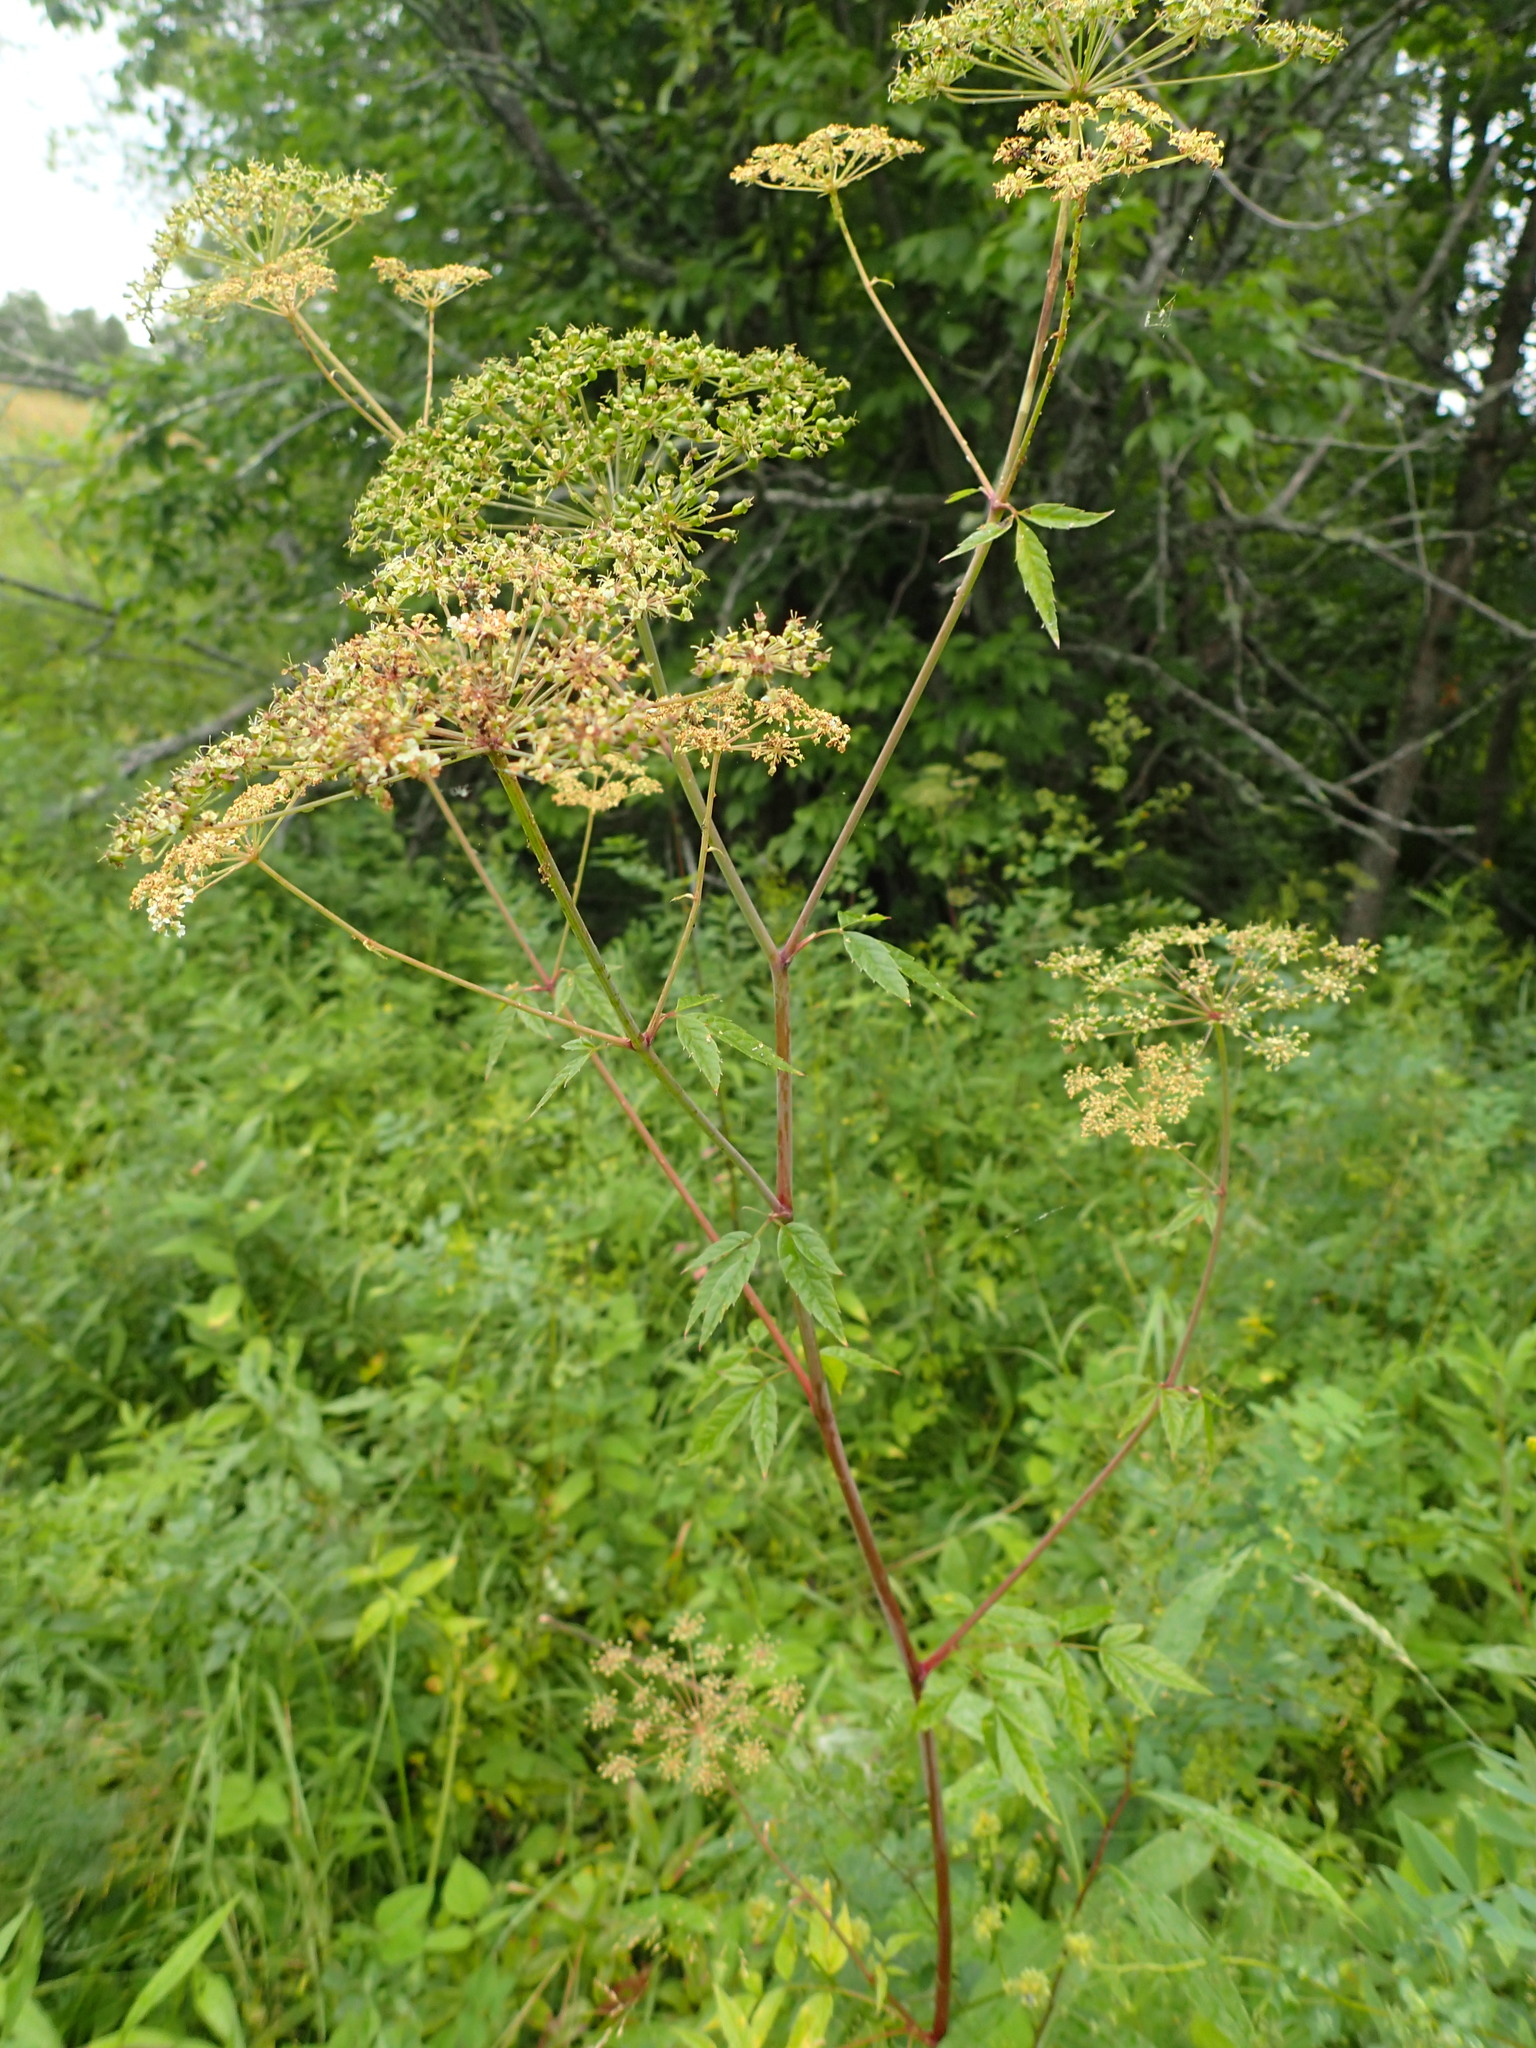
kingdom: Plantae
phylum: Tracheophyta
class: Magnoliopsida
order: Apiales
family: Apiaceae
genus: Cicuta
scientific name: Cicuta maculata
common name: Spotted cowbane
